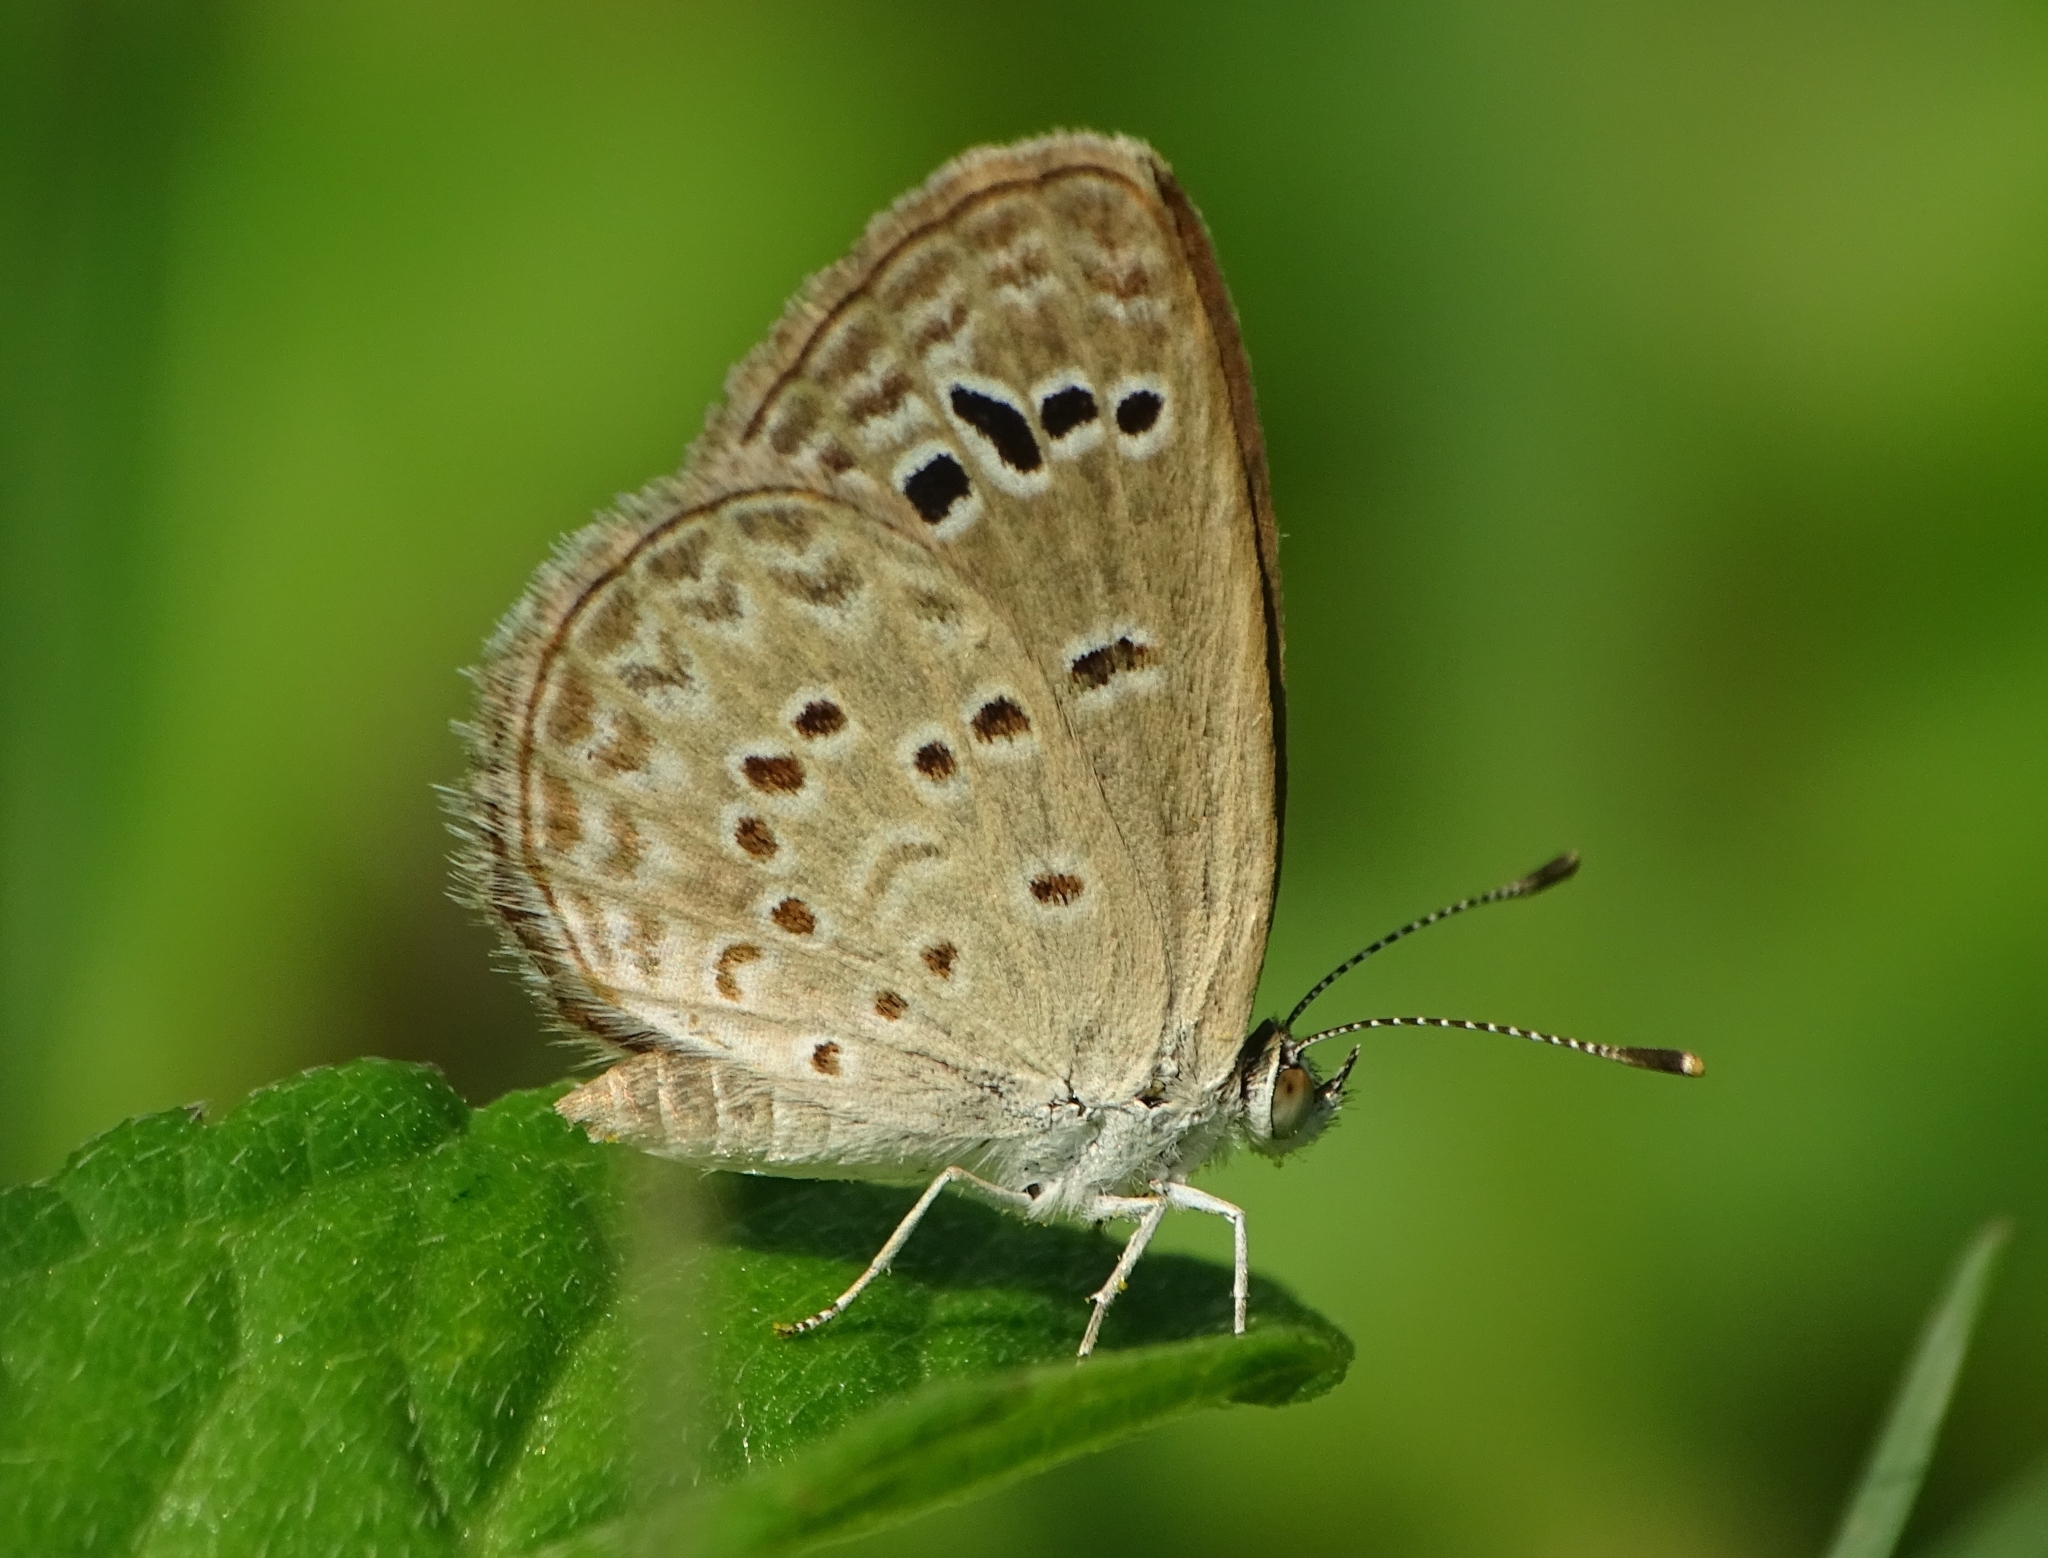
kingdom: Animalia
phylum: Arthropoda
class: Insecta
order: Lepidoptera
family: Lycaenidae
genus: Zizina
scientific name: Zizina otis
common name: Lesser grass blue
